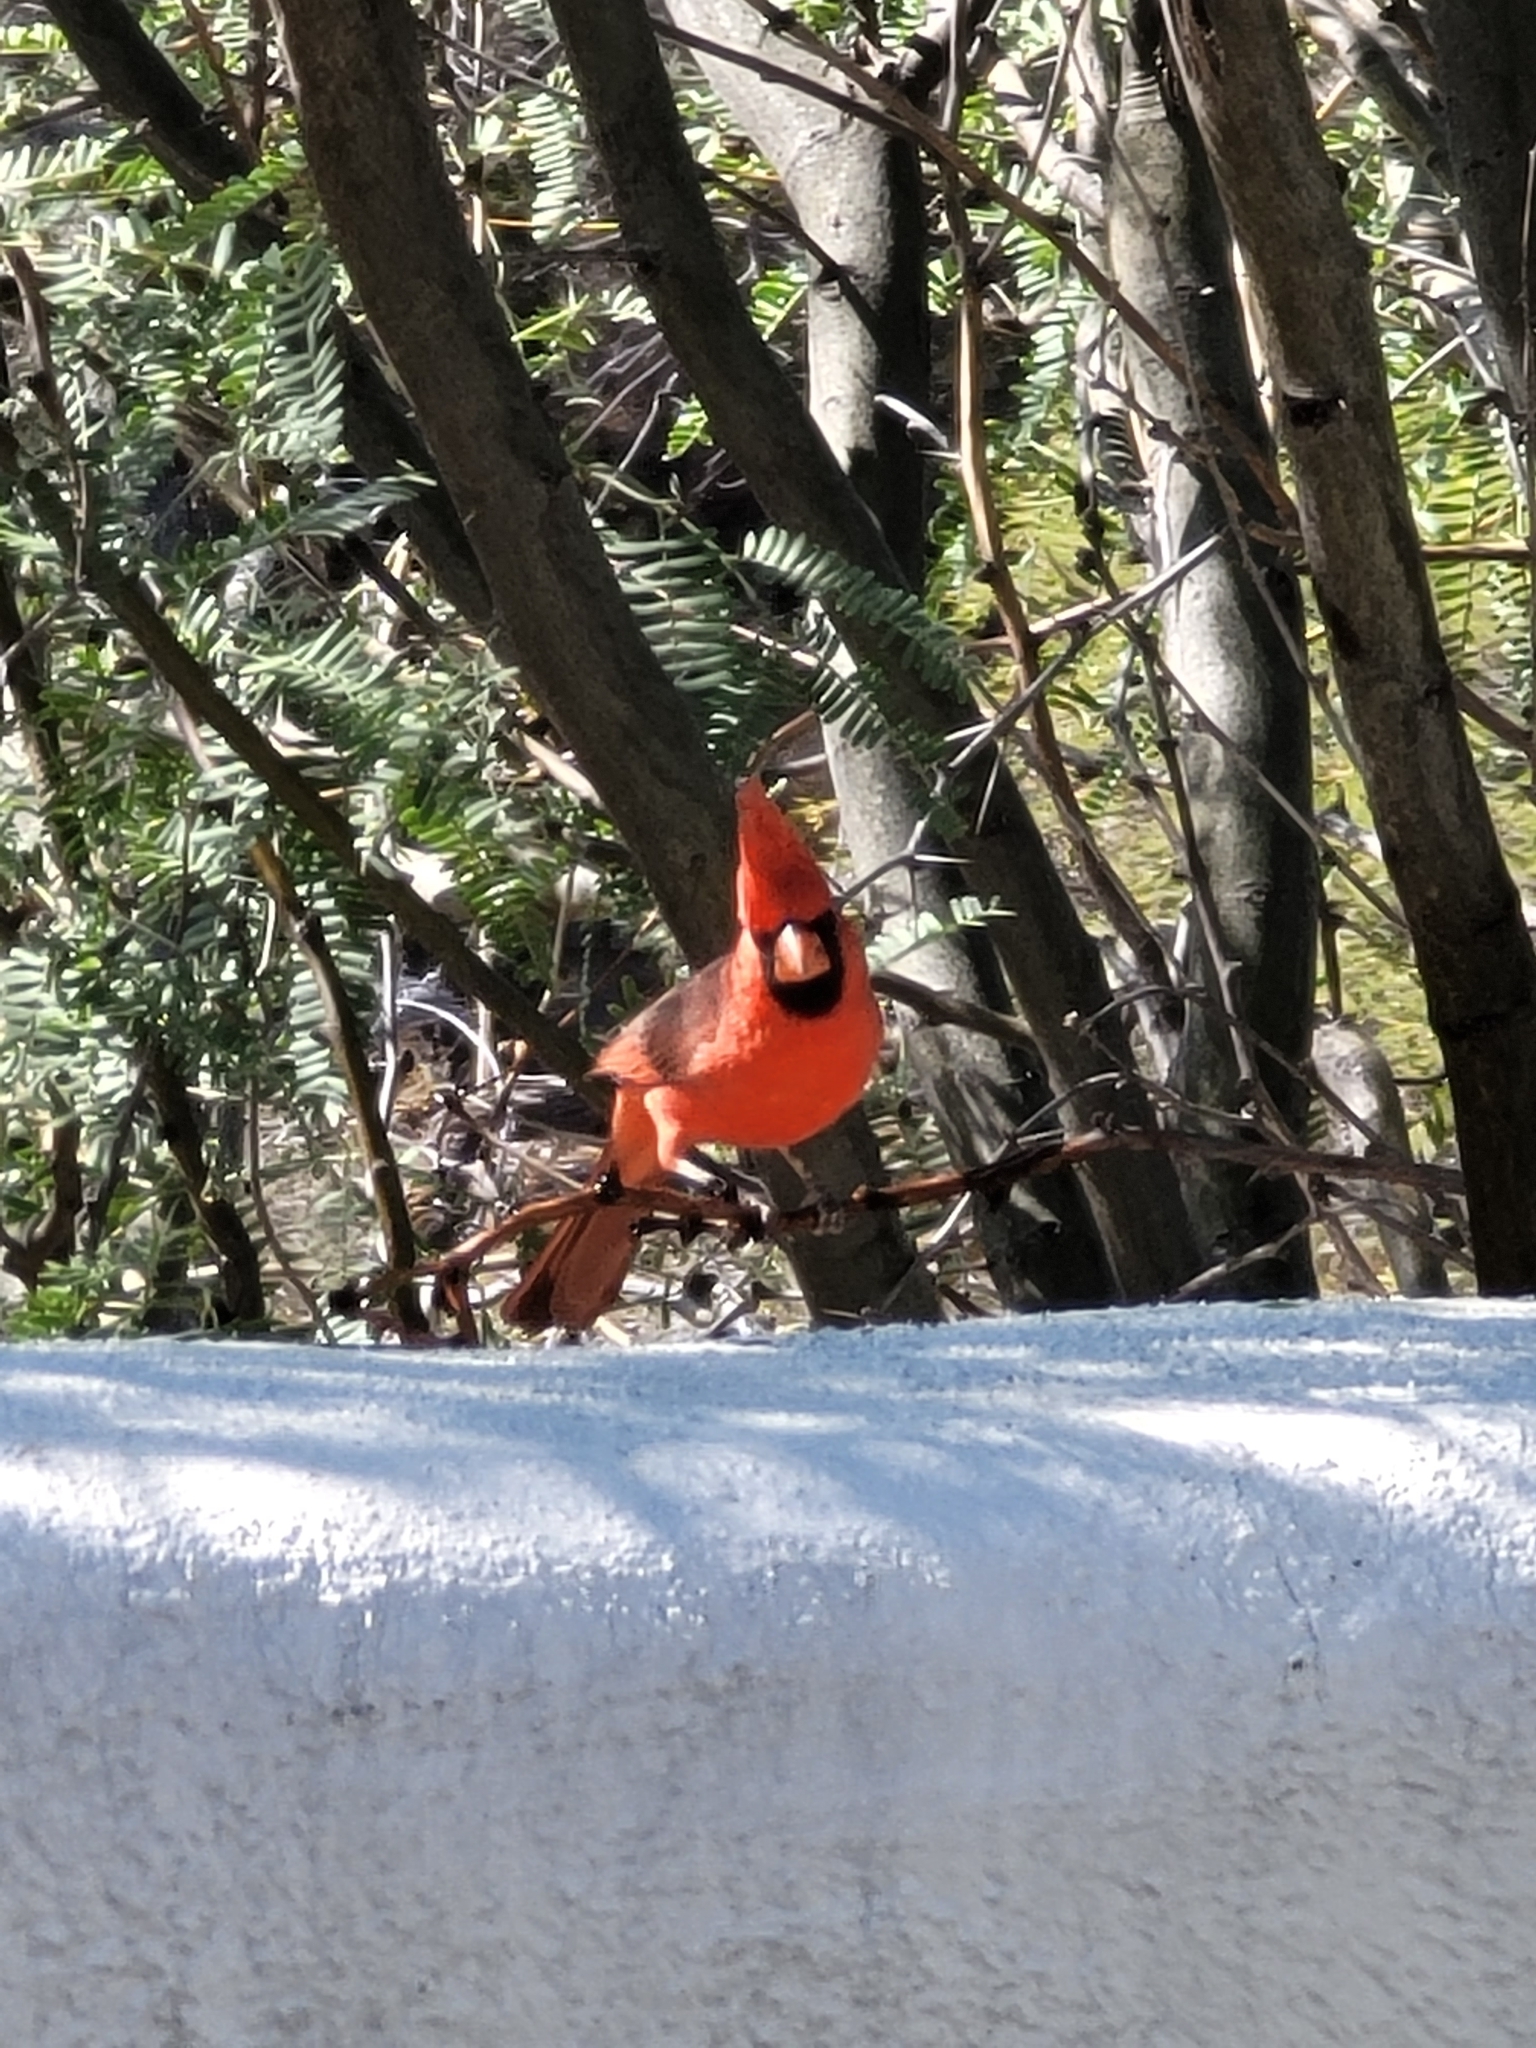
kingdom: Animalia
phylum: Chordata
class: Aves
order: Passeriformes
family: Cardinalidae
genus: Cardinalis
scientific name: Cardinalis cardinalis
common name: Northern cardinal
